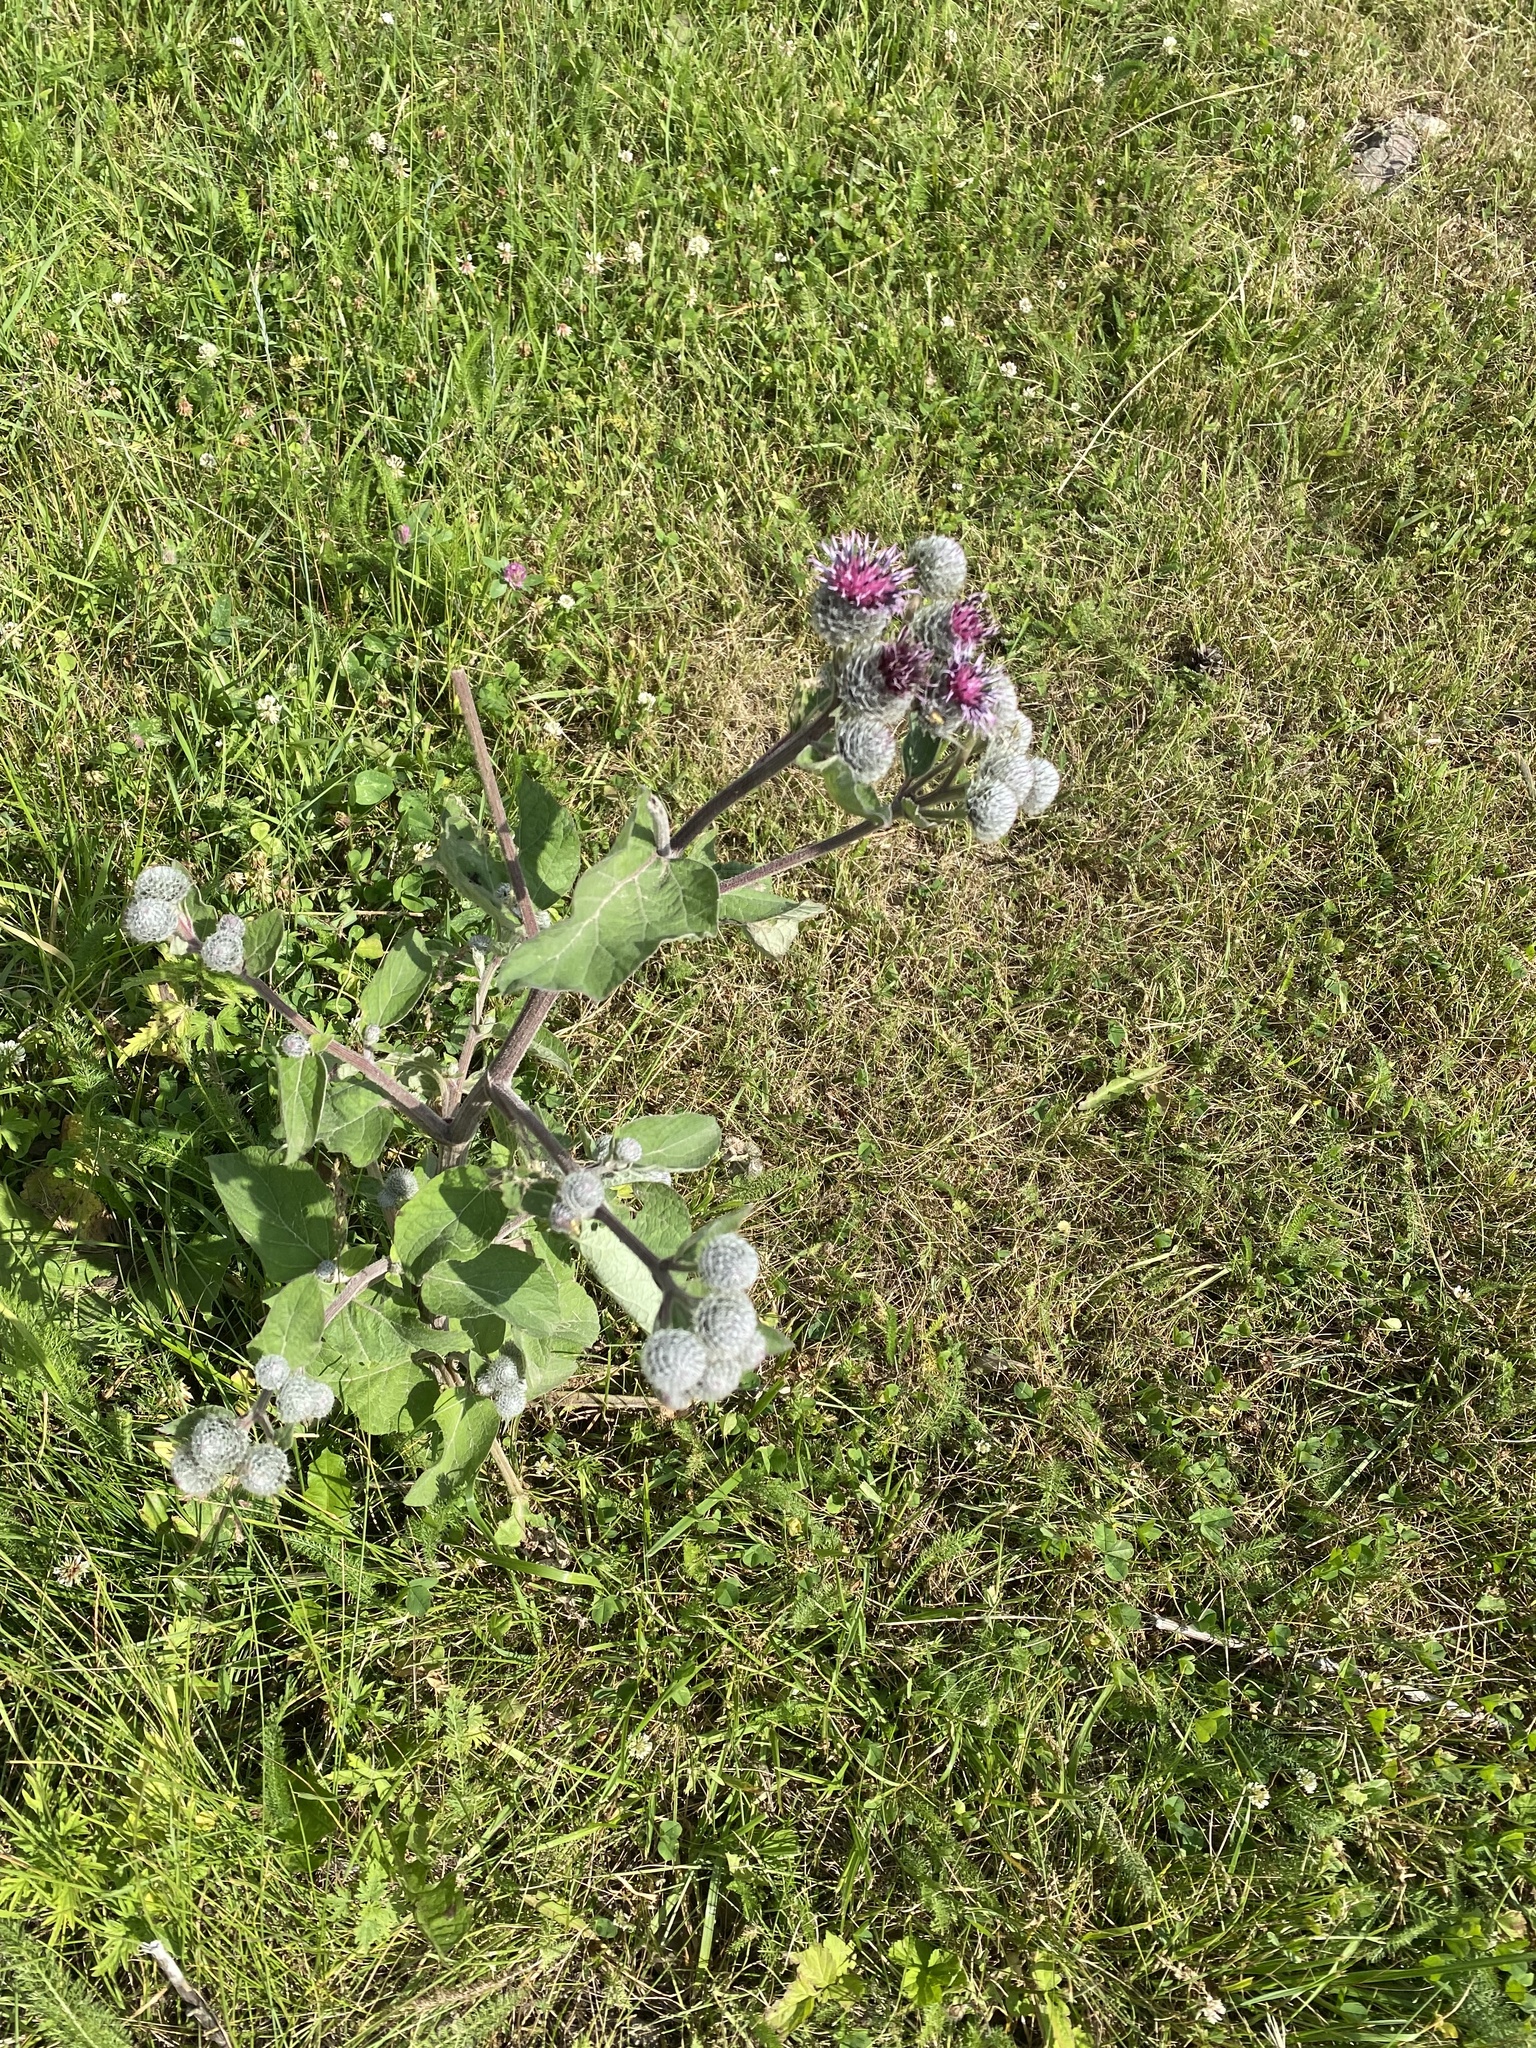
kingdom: Plantae
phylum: Tracheophyta
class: Magnoliopsida
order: Asterales
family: Asteraceae
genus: Arctium
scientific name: Arctium tomentosum
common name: Woolly burdock
